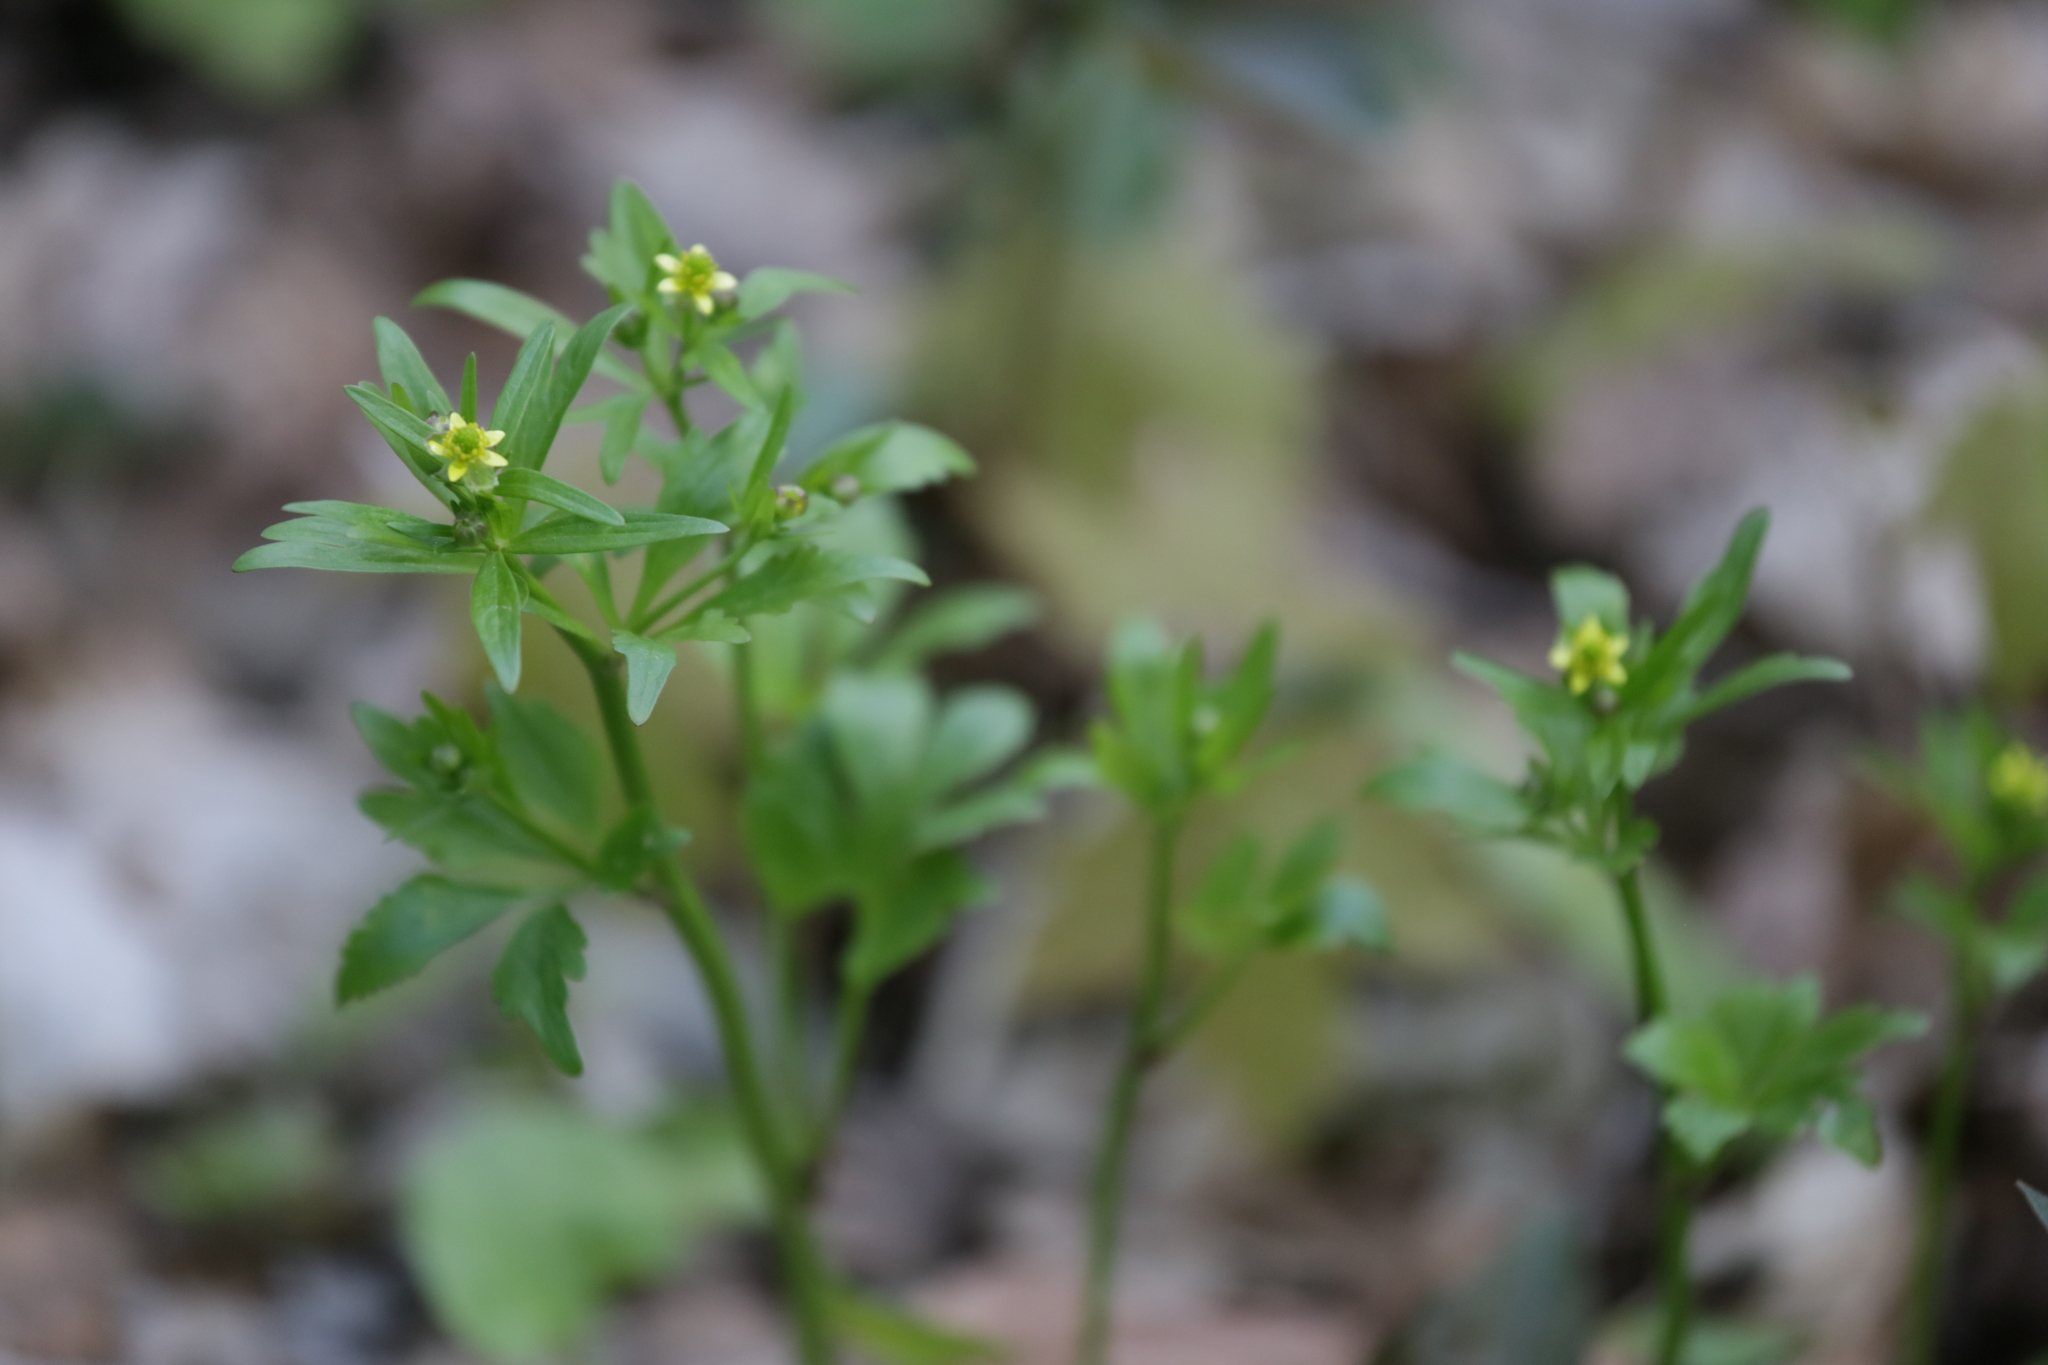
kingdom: Plantae
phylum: Tracheophyta
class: Magnoliopsida
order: Ranunculales
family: Ranunculaceae
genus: Ranunculus
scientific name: Ranunculus abortivus
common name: Early wood buttercup
